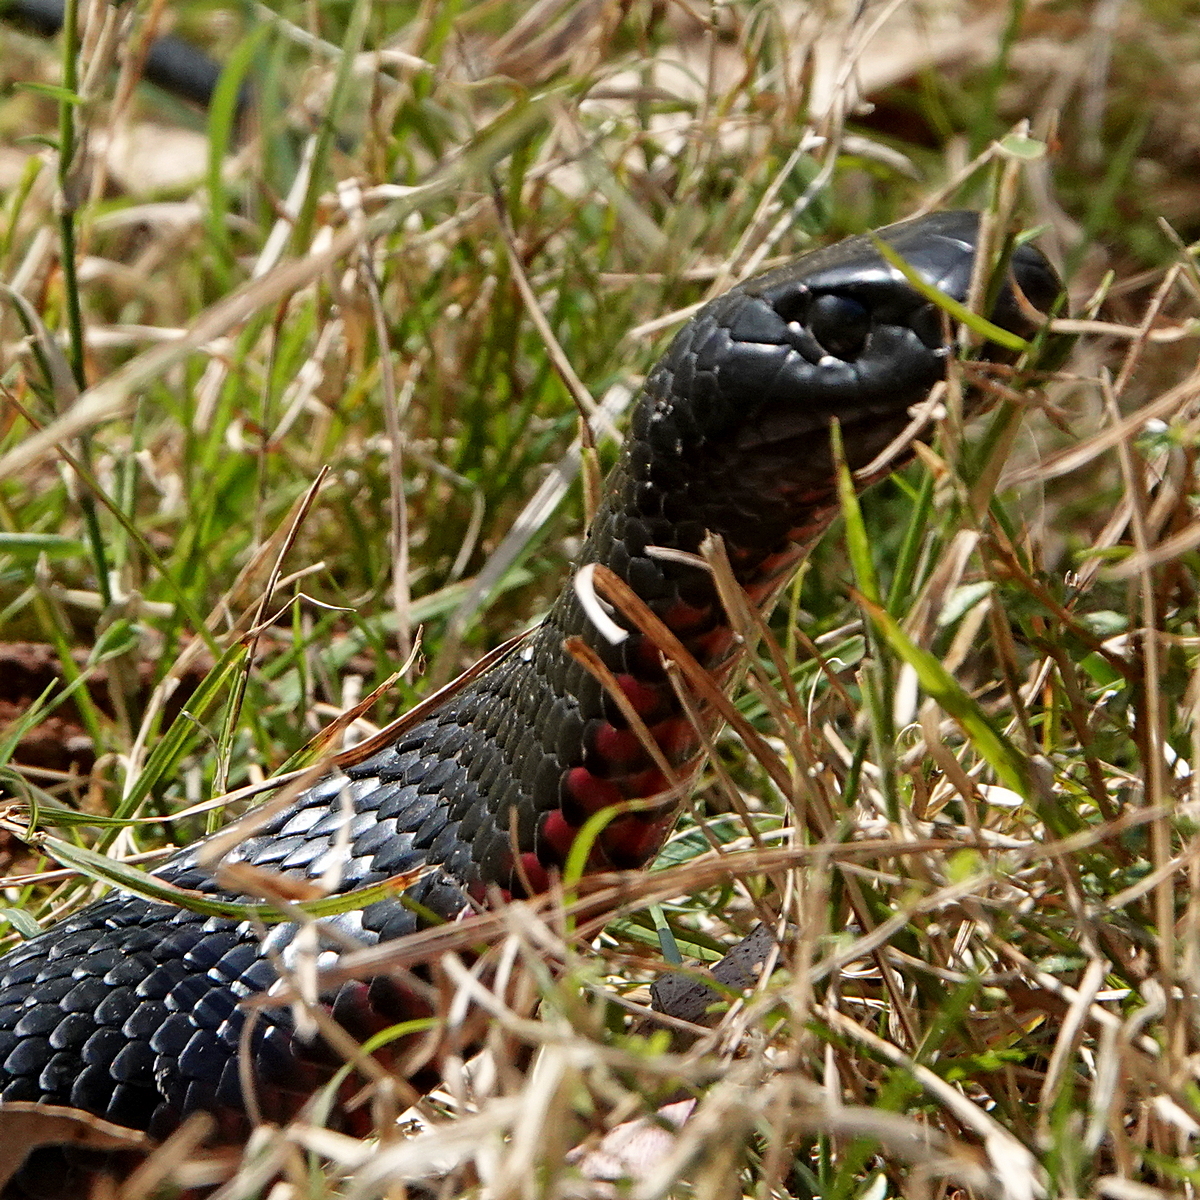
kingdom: Animalia
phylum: Chordata
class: Squamata
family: Elapidae
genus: Pseudechis
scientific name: Pseudechis porphyriacus
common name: Australian black snake
